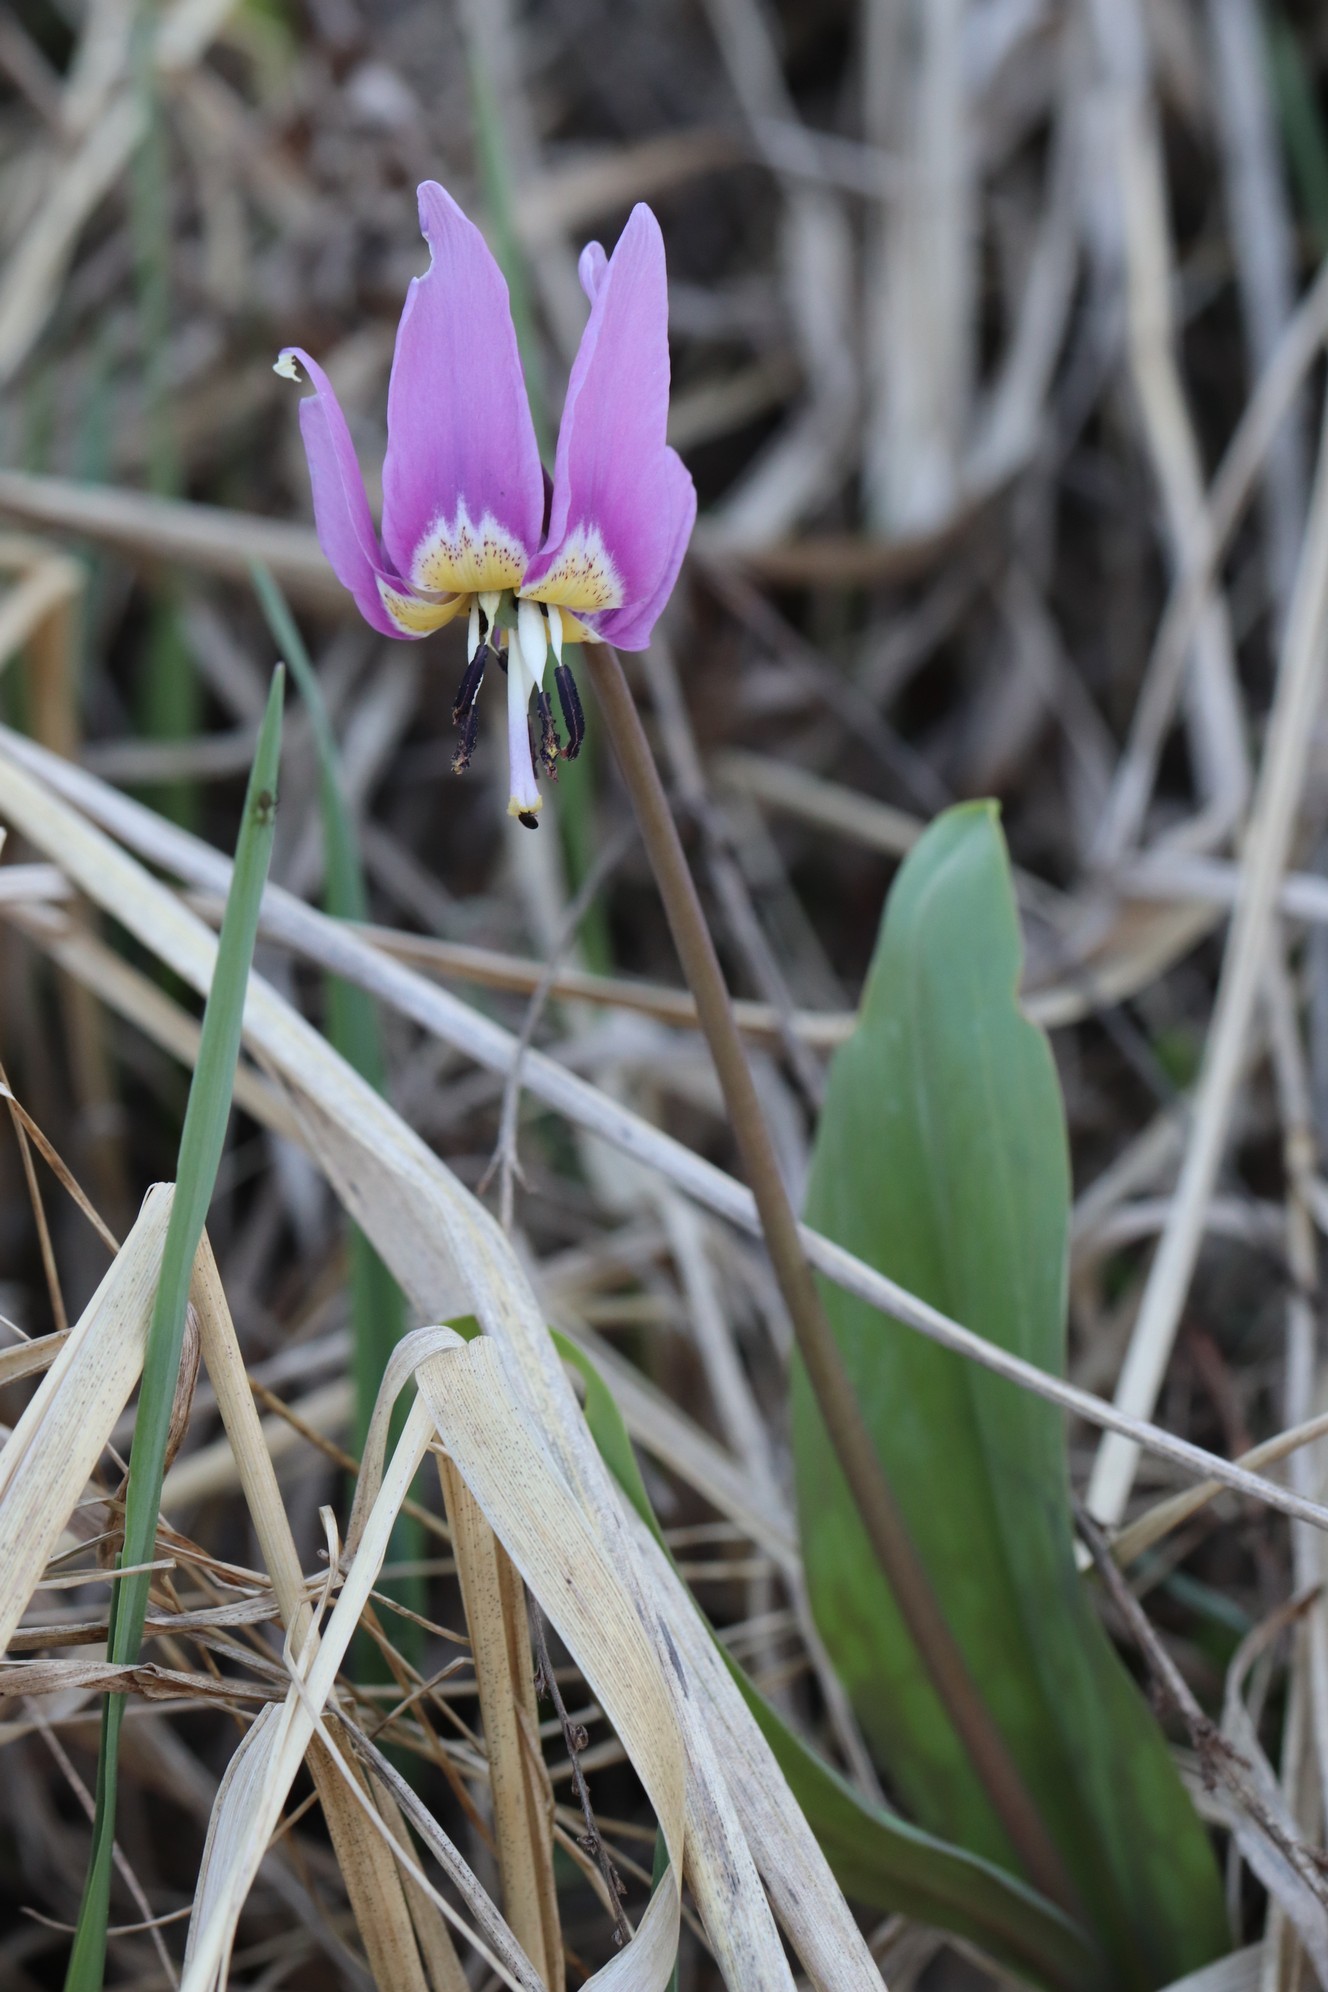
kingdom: Plantae
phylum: Tracheophyta
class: Liliopsida
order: Liliales
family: Liliaceae
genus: Erythronium
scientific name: Erythronium sulevii
